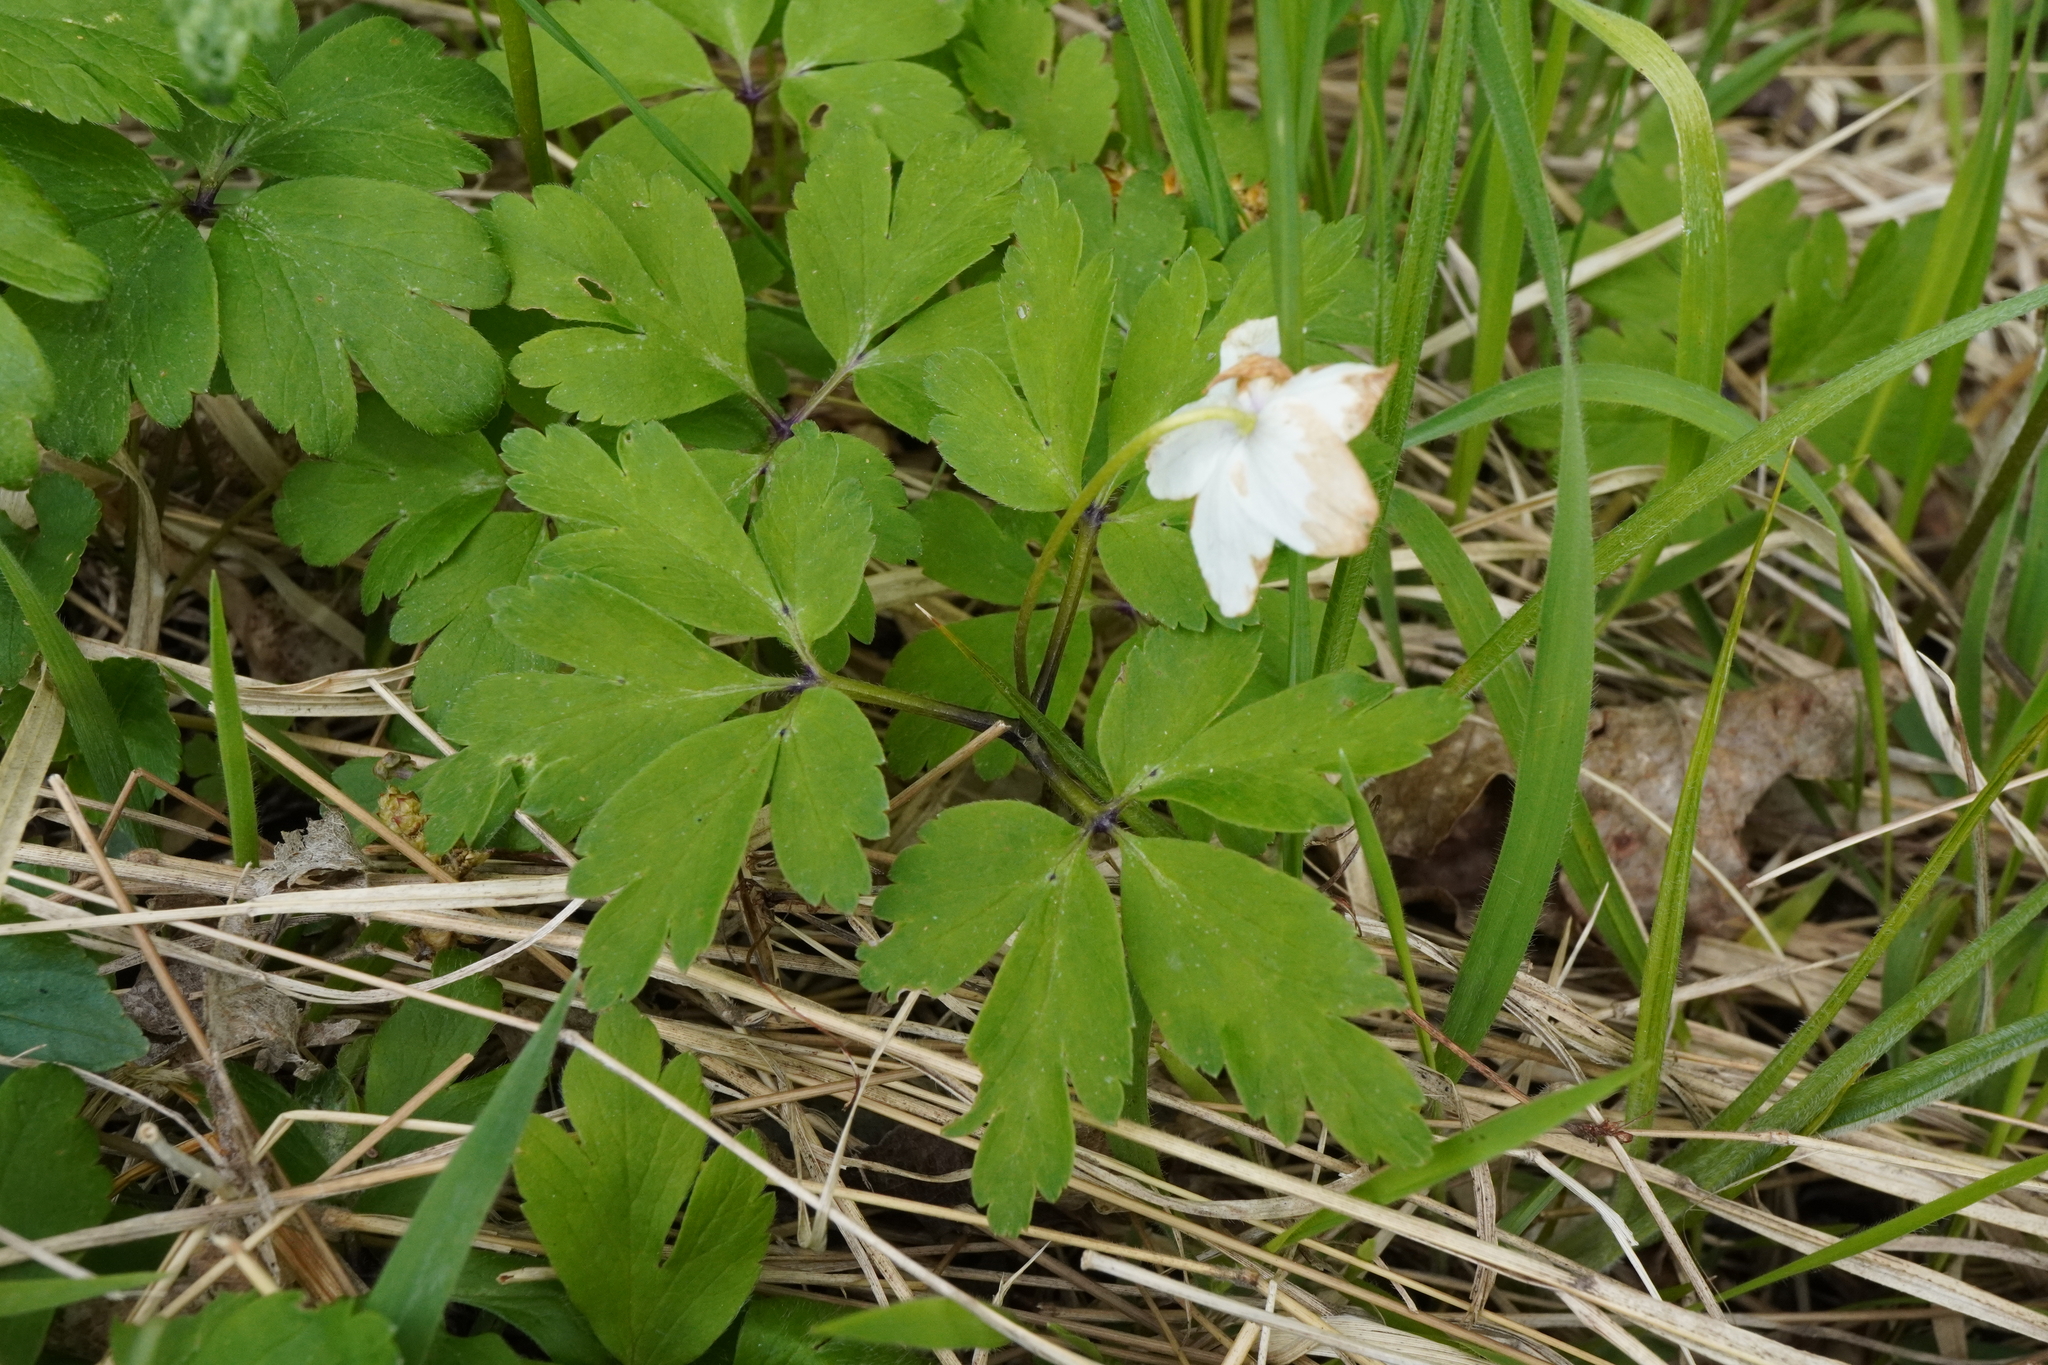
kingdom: Plantae
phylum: Tracheophyta
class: Magnoliopsida
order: Ranunculales
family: Ranunculaceae
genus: Anemone
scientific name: Anemone nemorosa
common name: Wood anemone
